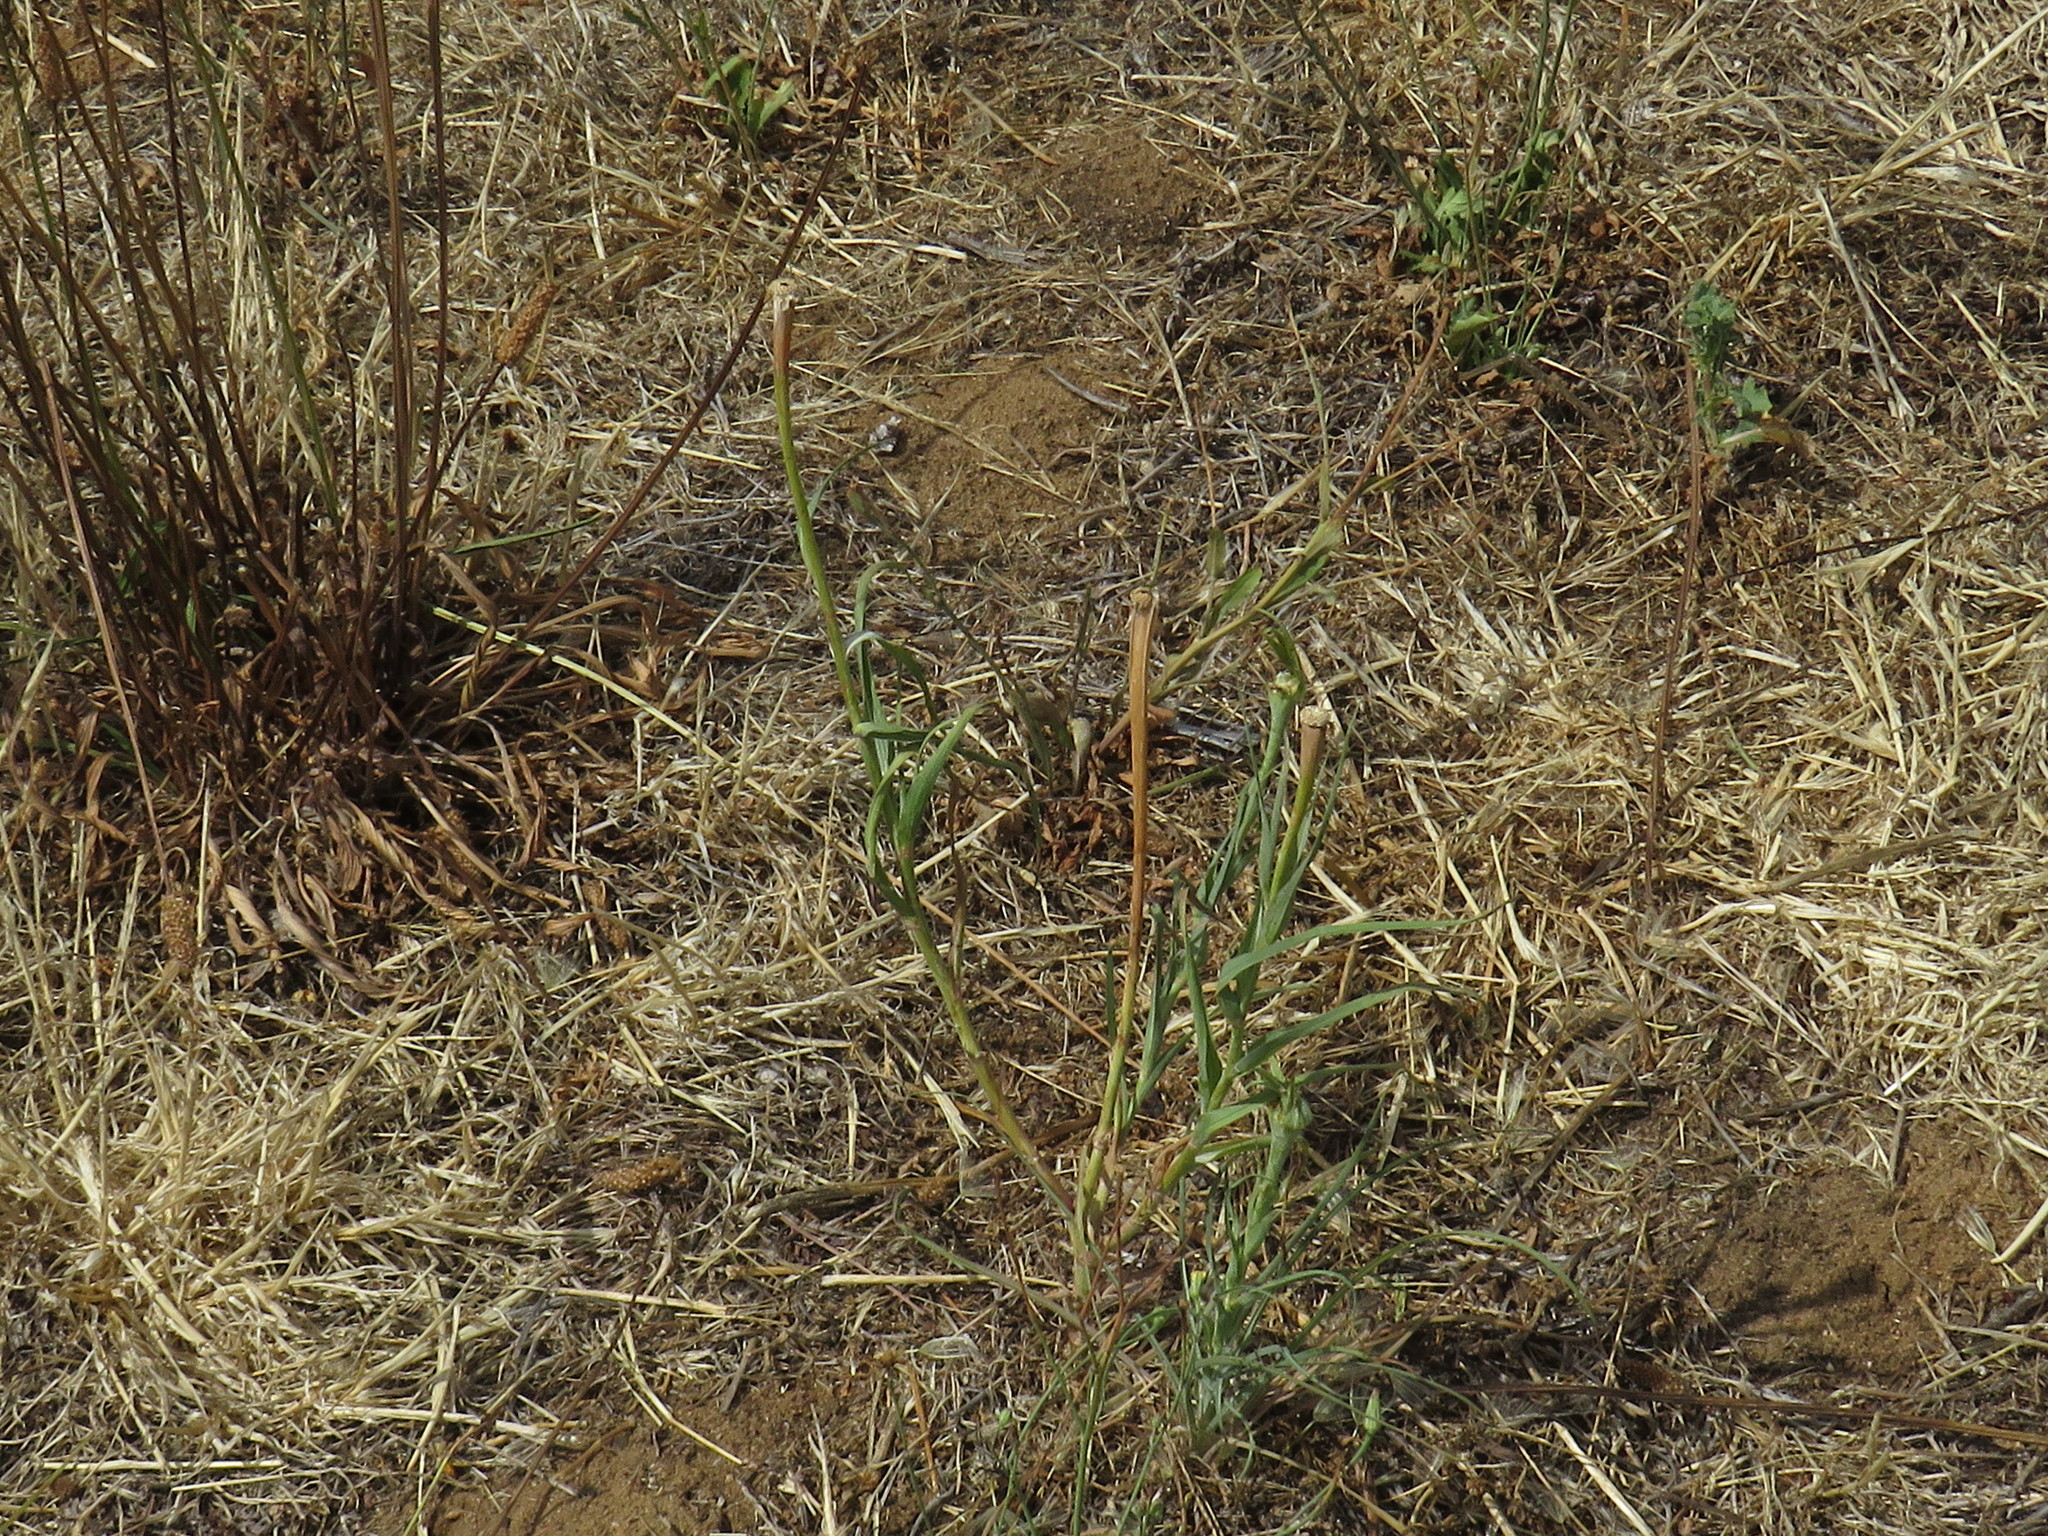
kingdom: Plantae
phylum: Tracheophyta
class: Magnoliopsida
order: Asterales
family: Asteraceae
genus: Tragopogon
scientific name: Tragopogon dubius
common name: Yellow salsify
